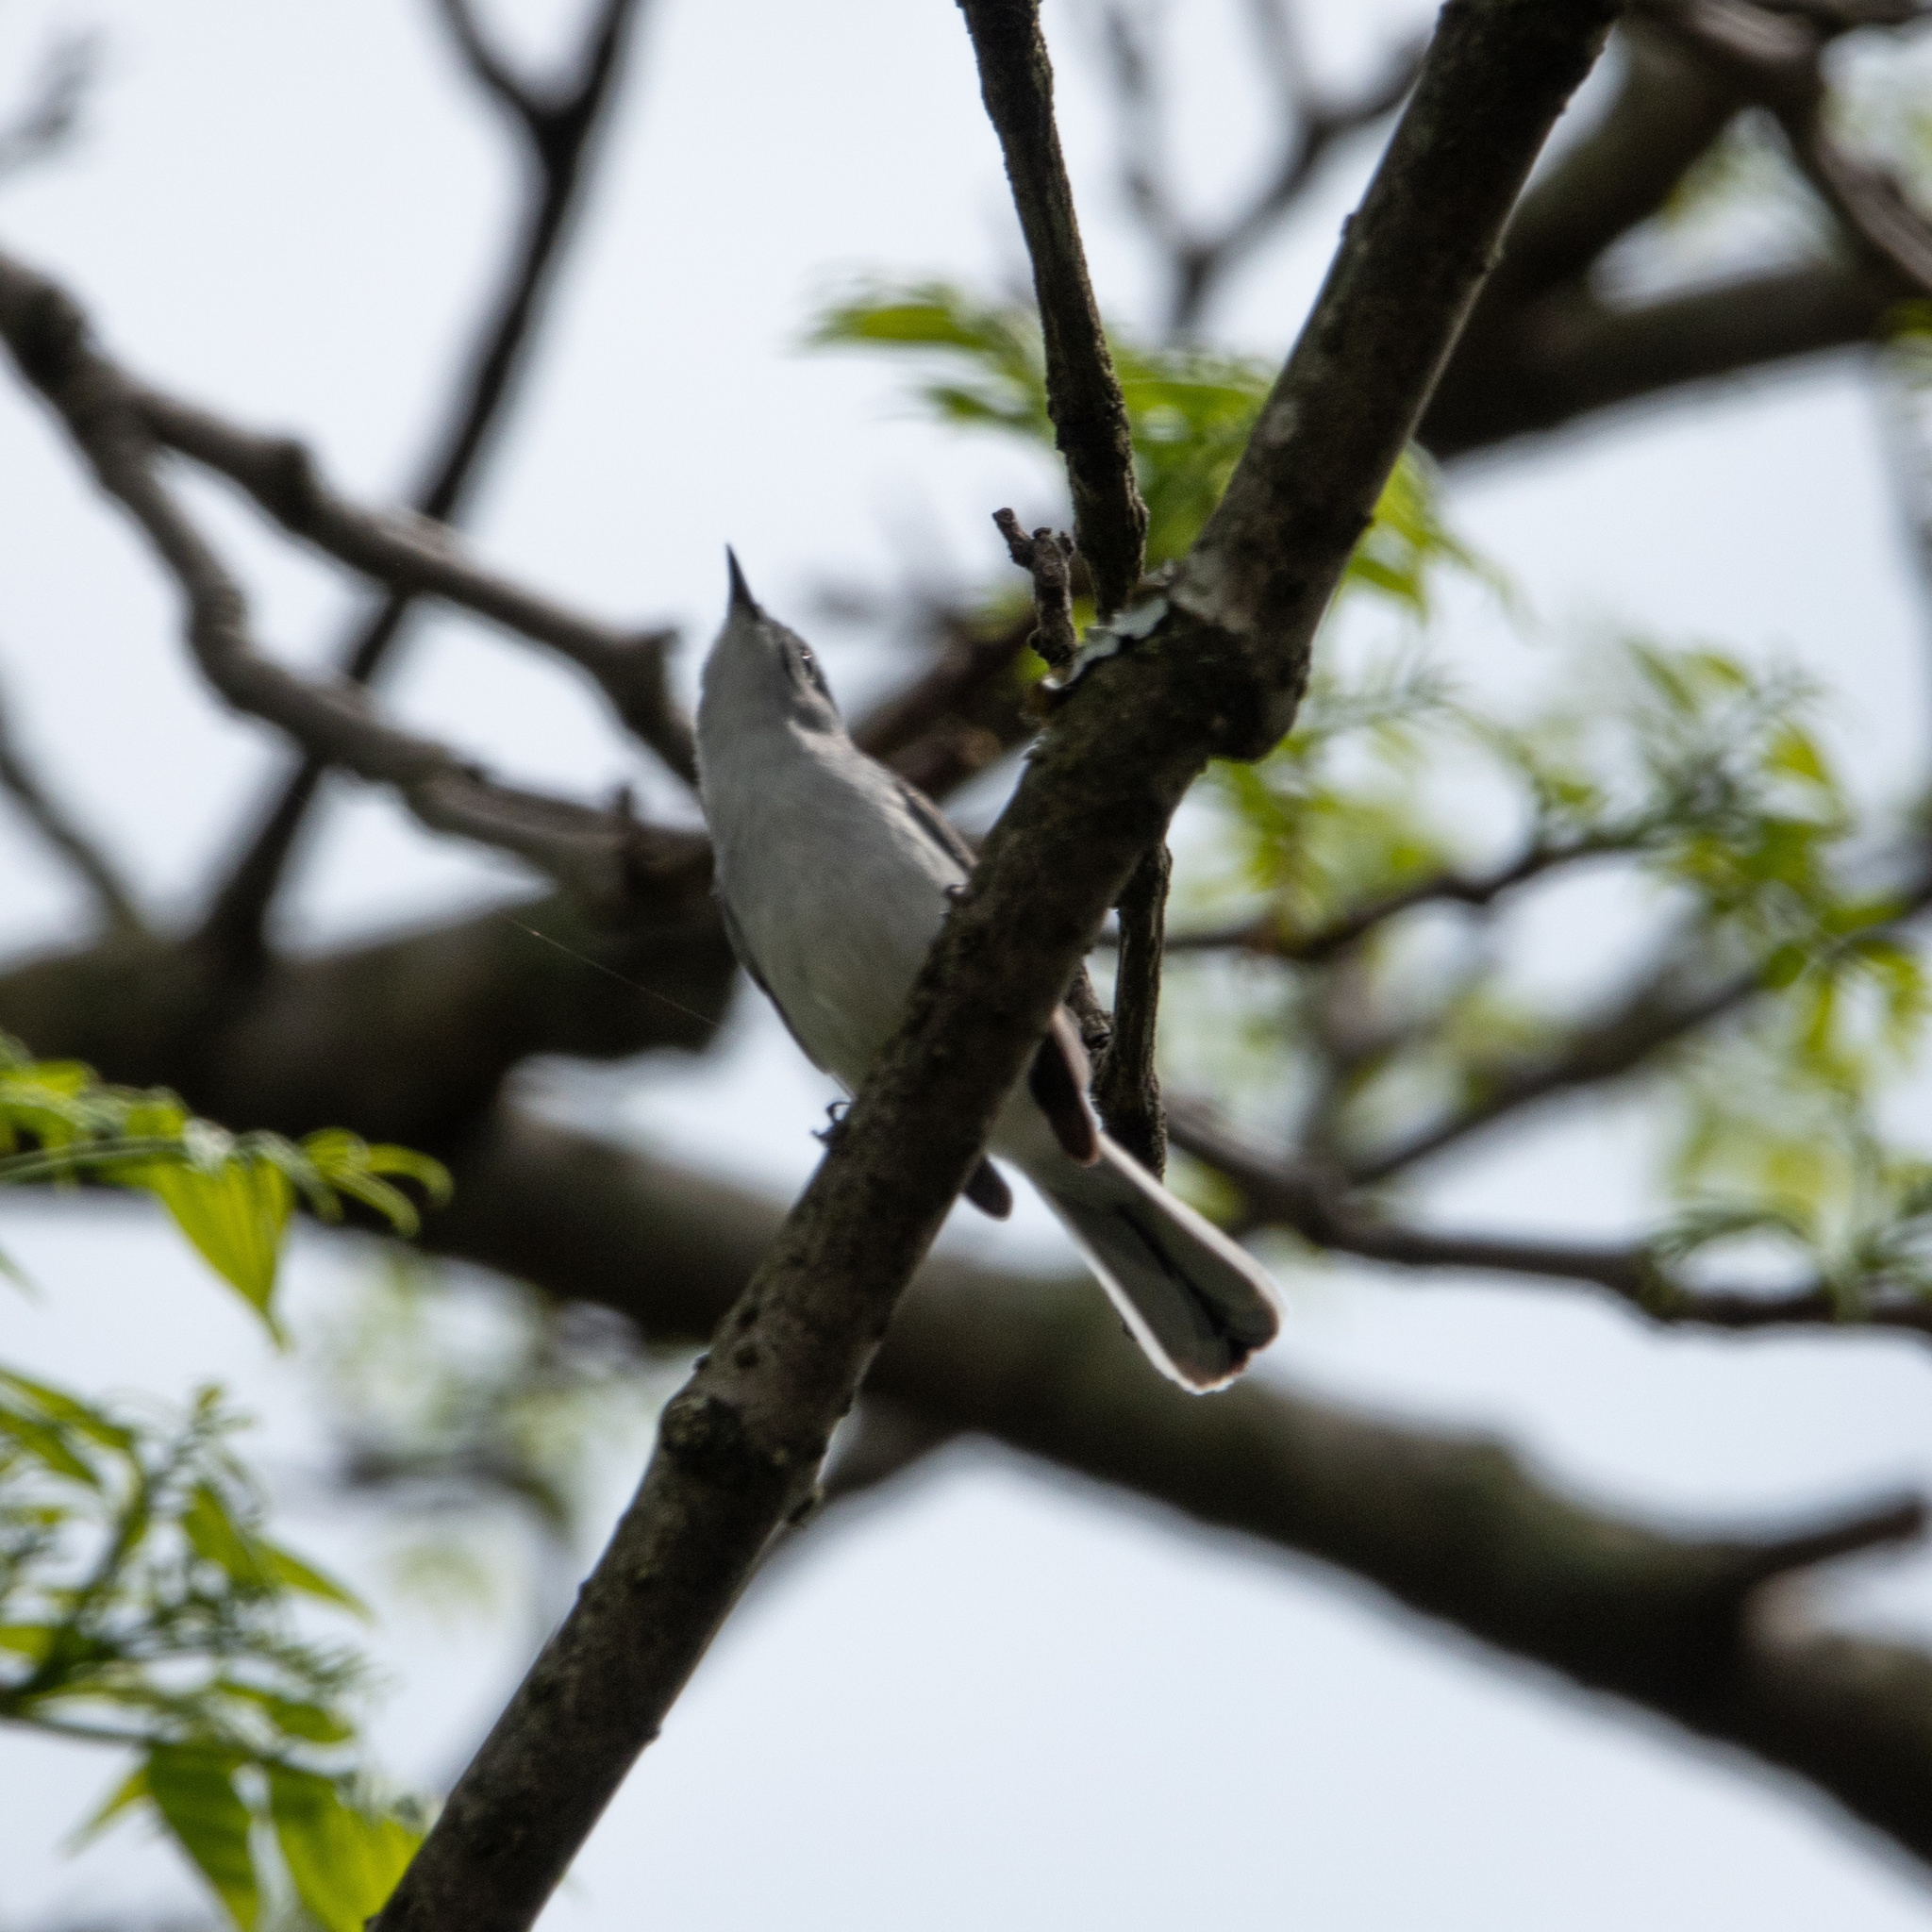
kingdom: Animalia
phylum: Chordata
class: Aves
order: Passeriformes
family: Polioptilidae
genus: Polioptila
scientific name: Polioptila caerulea
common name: Blue-gray gnatcatcher
